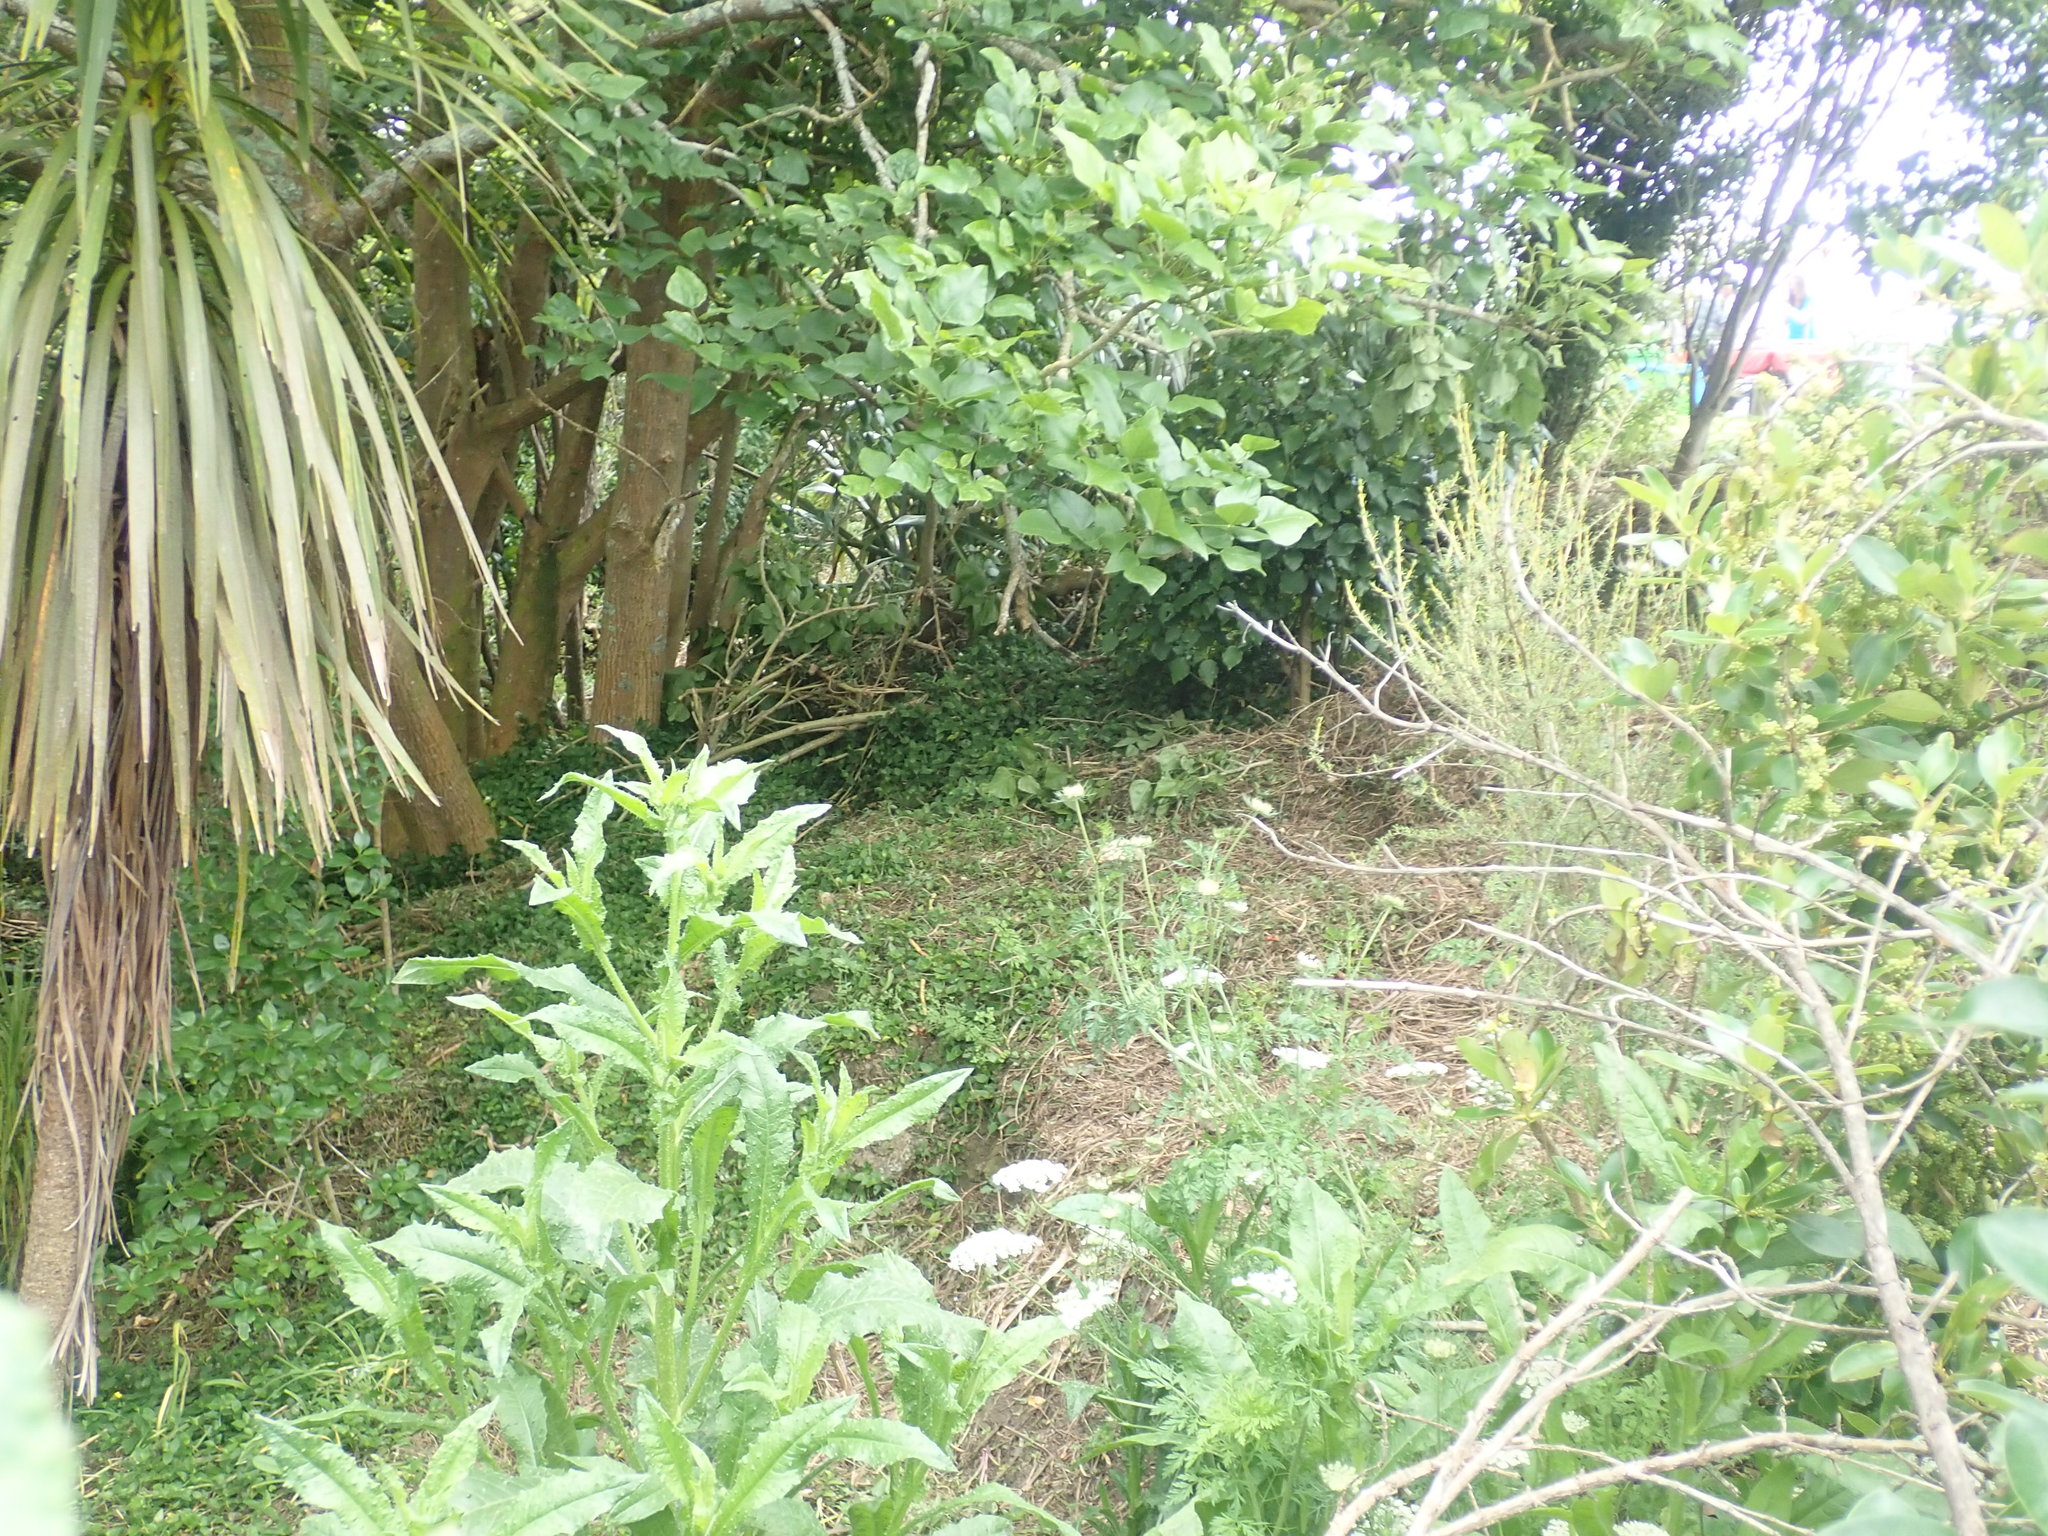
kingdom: Plantae
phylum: Tracheophyta
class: Liliopsida
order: Commelinales
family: Commelinaceae
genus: Tradescantia
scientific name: Tradescantia fluminensis
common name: Wandering-jew
